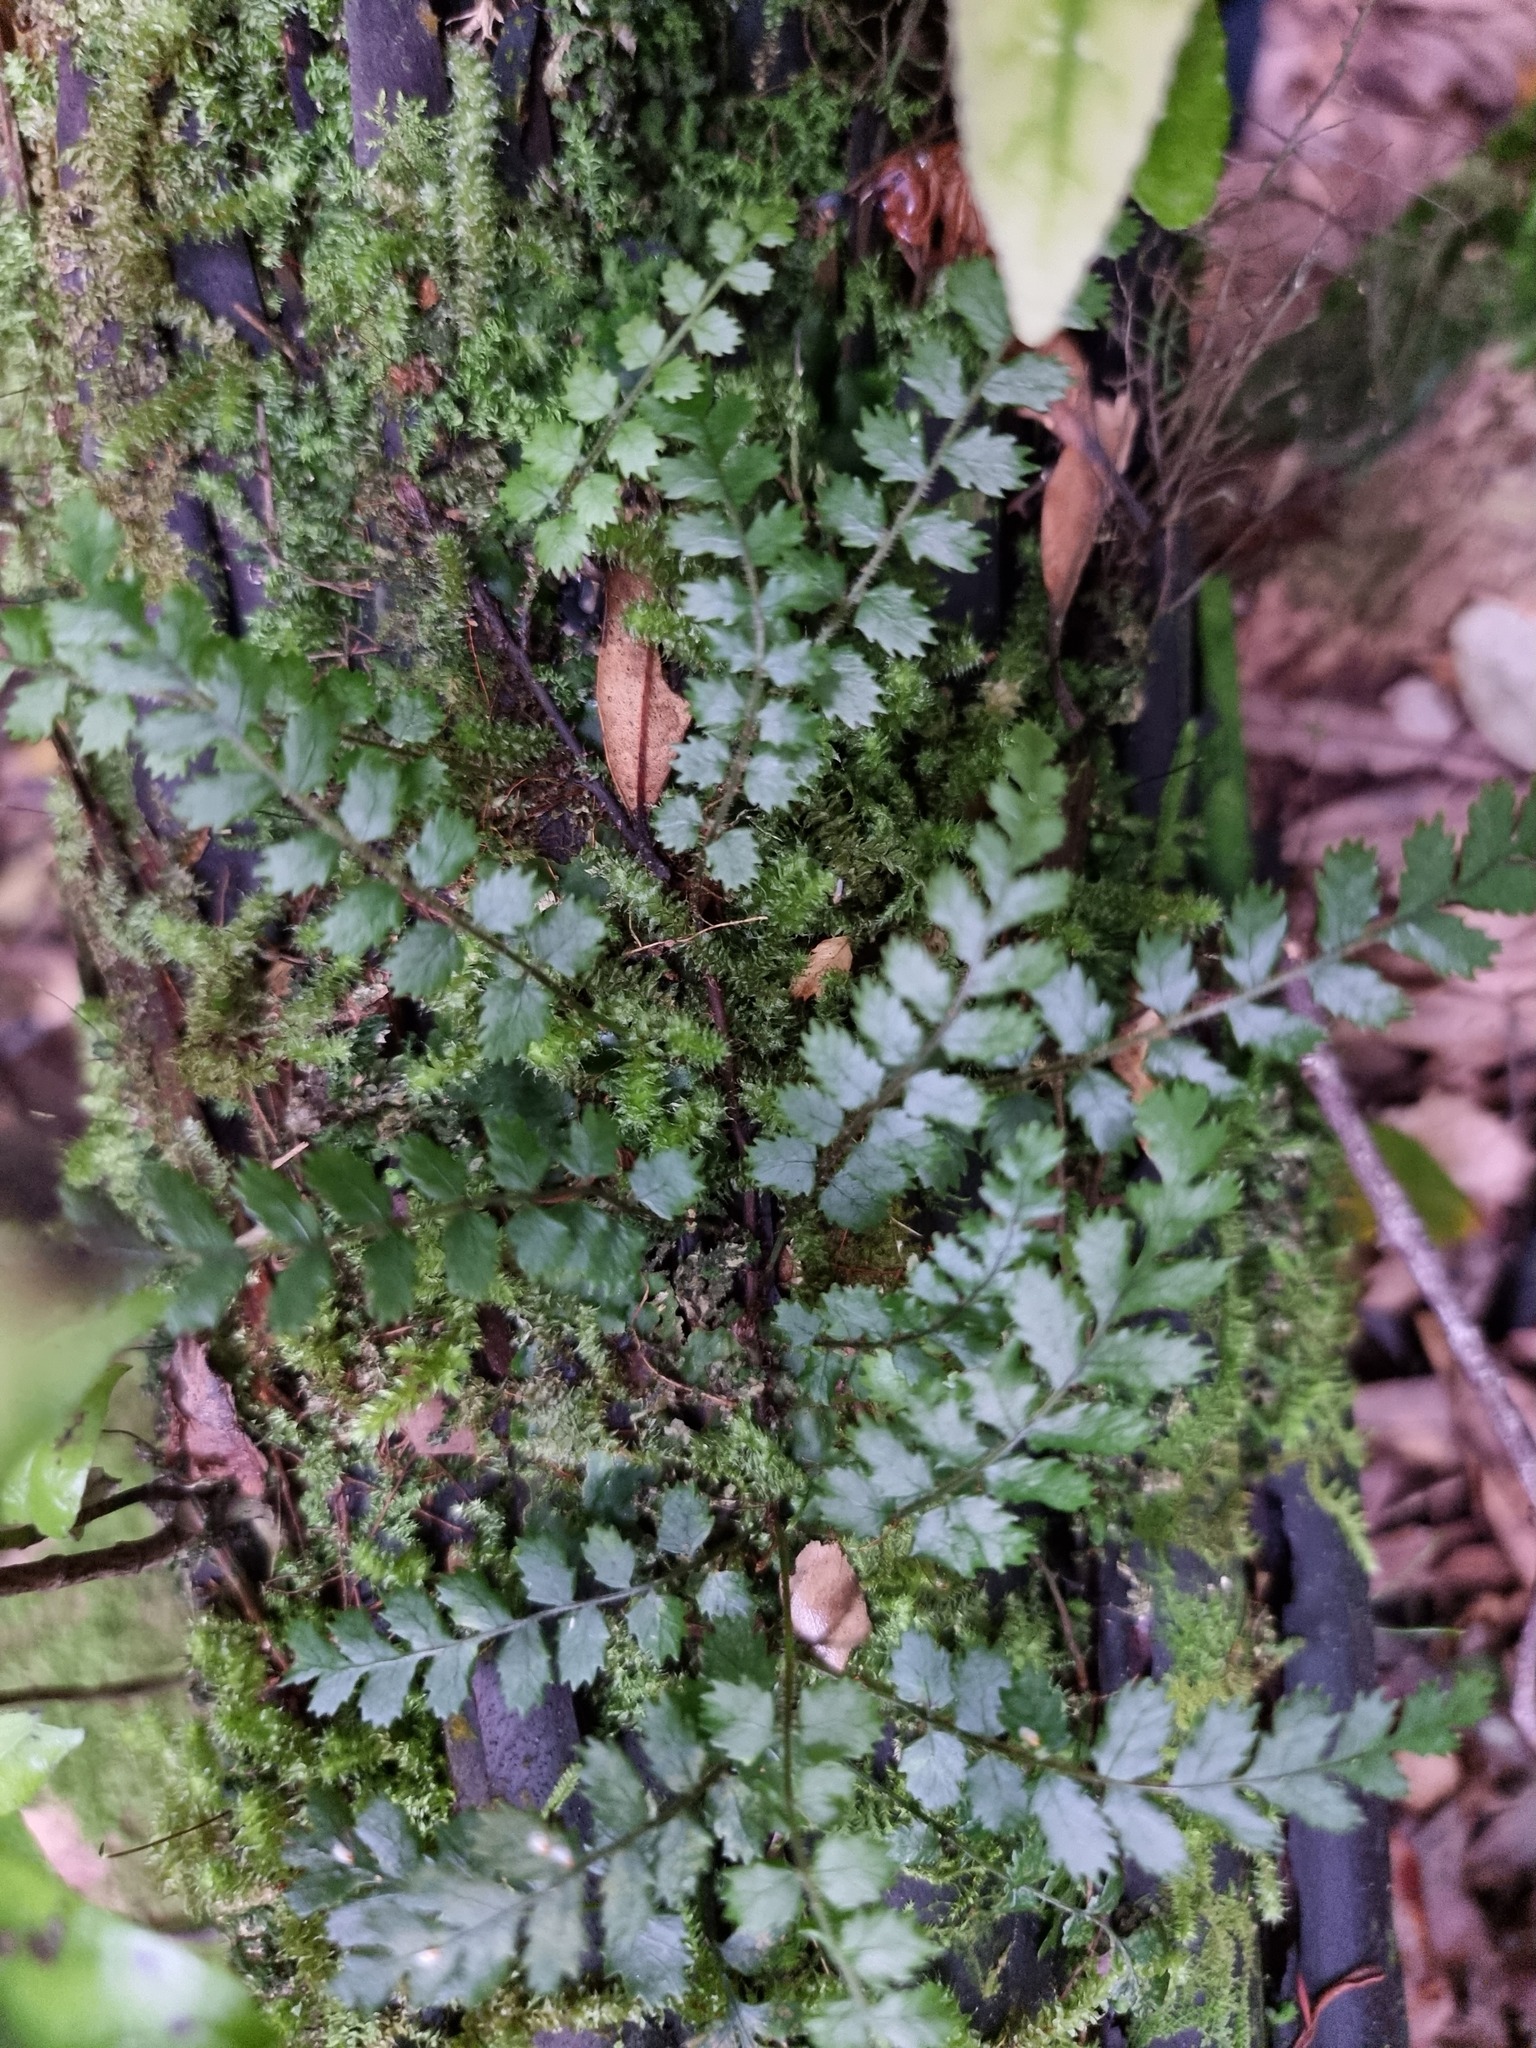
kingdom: Plantae
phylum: Tracheophyta
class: Polypodiopsida
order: Polypodiales
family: Blechnaceae
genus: Icarus
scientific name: Icarus filiformis
